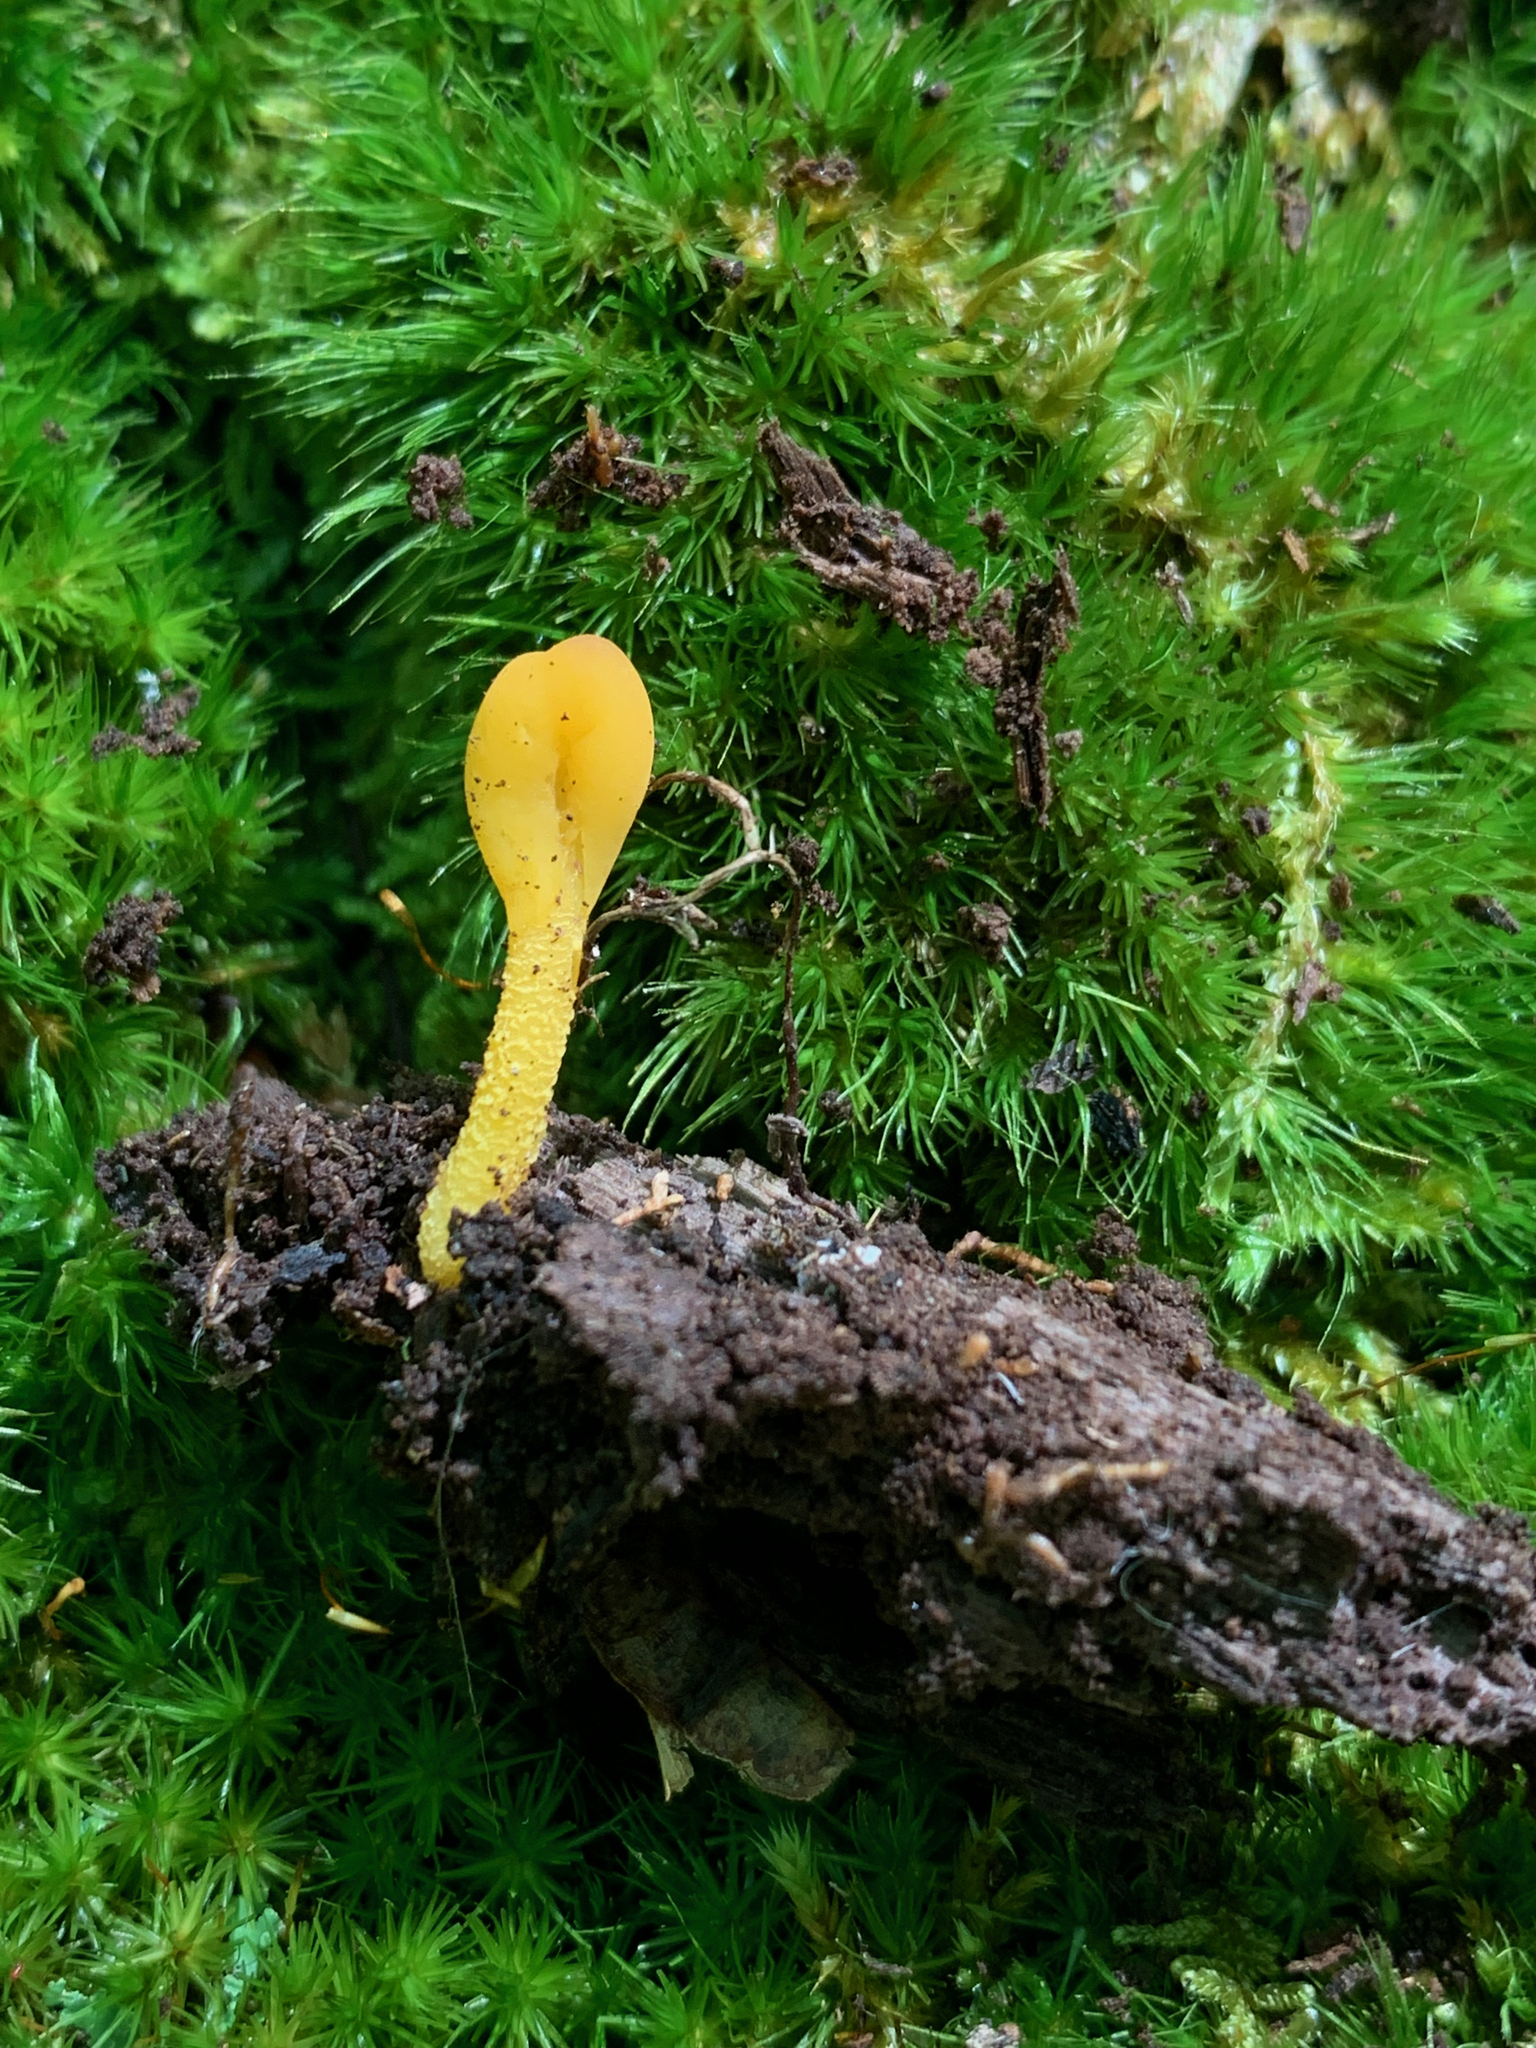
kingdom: Fungi
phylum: Ascomycota
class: Leotiomycetes
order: Leotiales
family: Leotiaceae
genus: Microglossum
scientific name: Microglossum rufum
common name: Orange earthtongue
